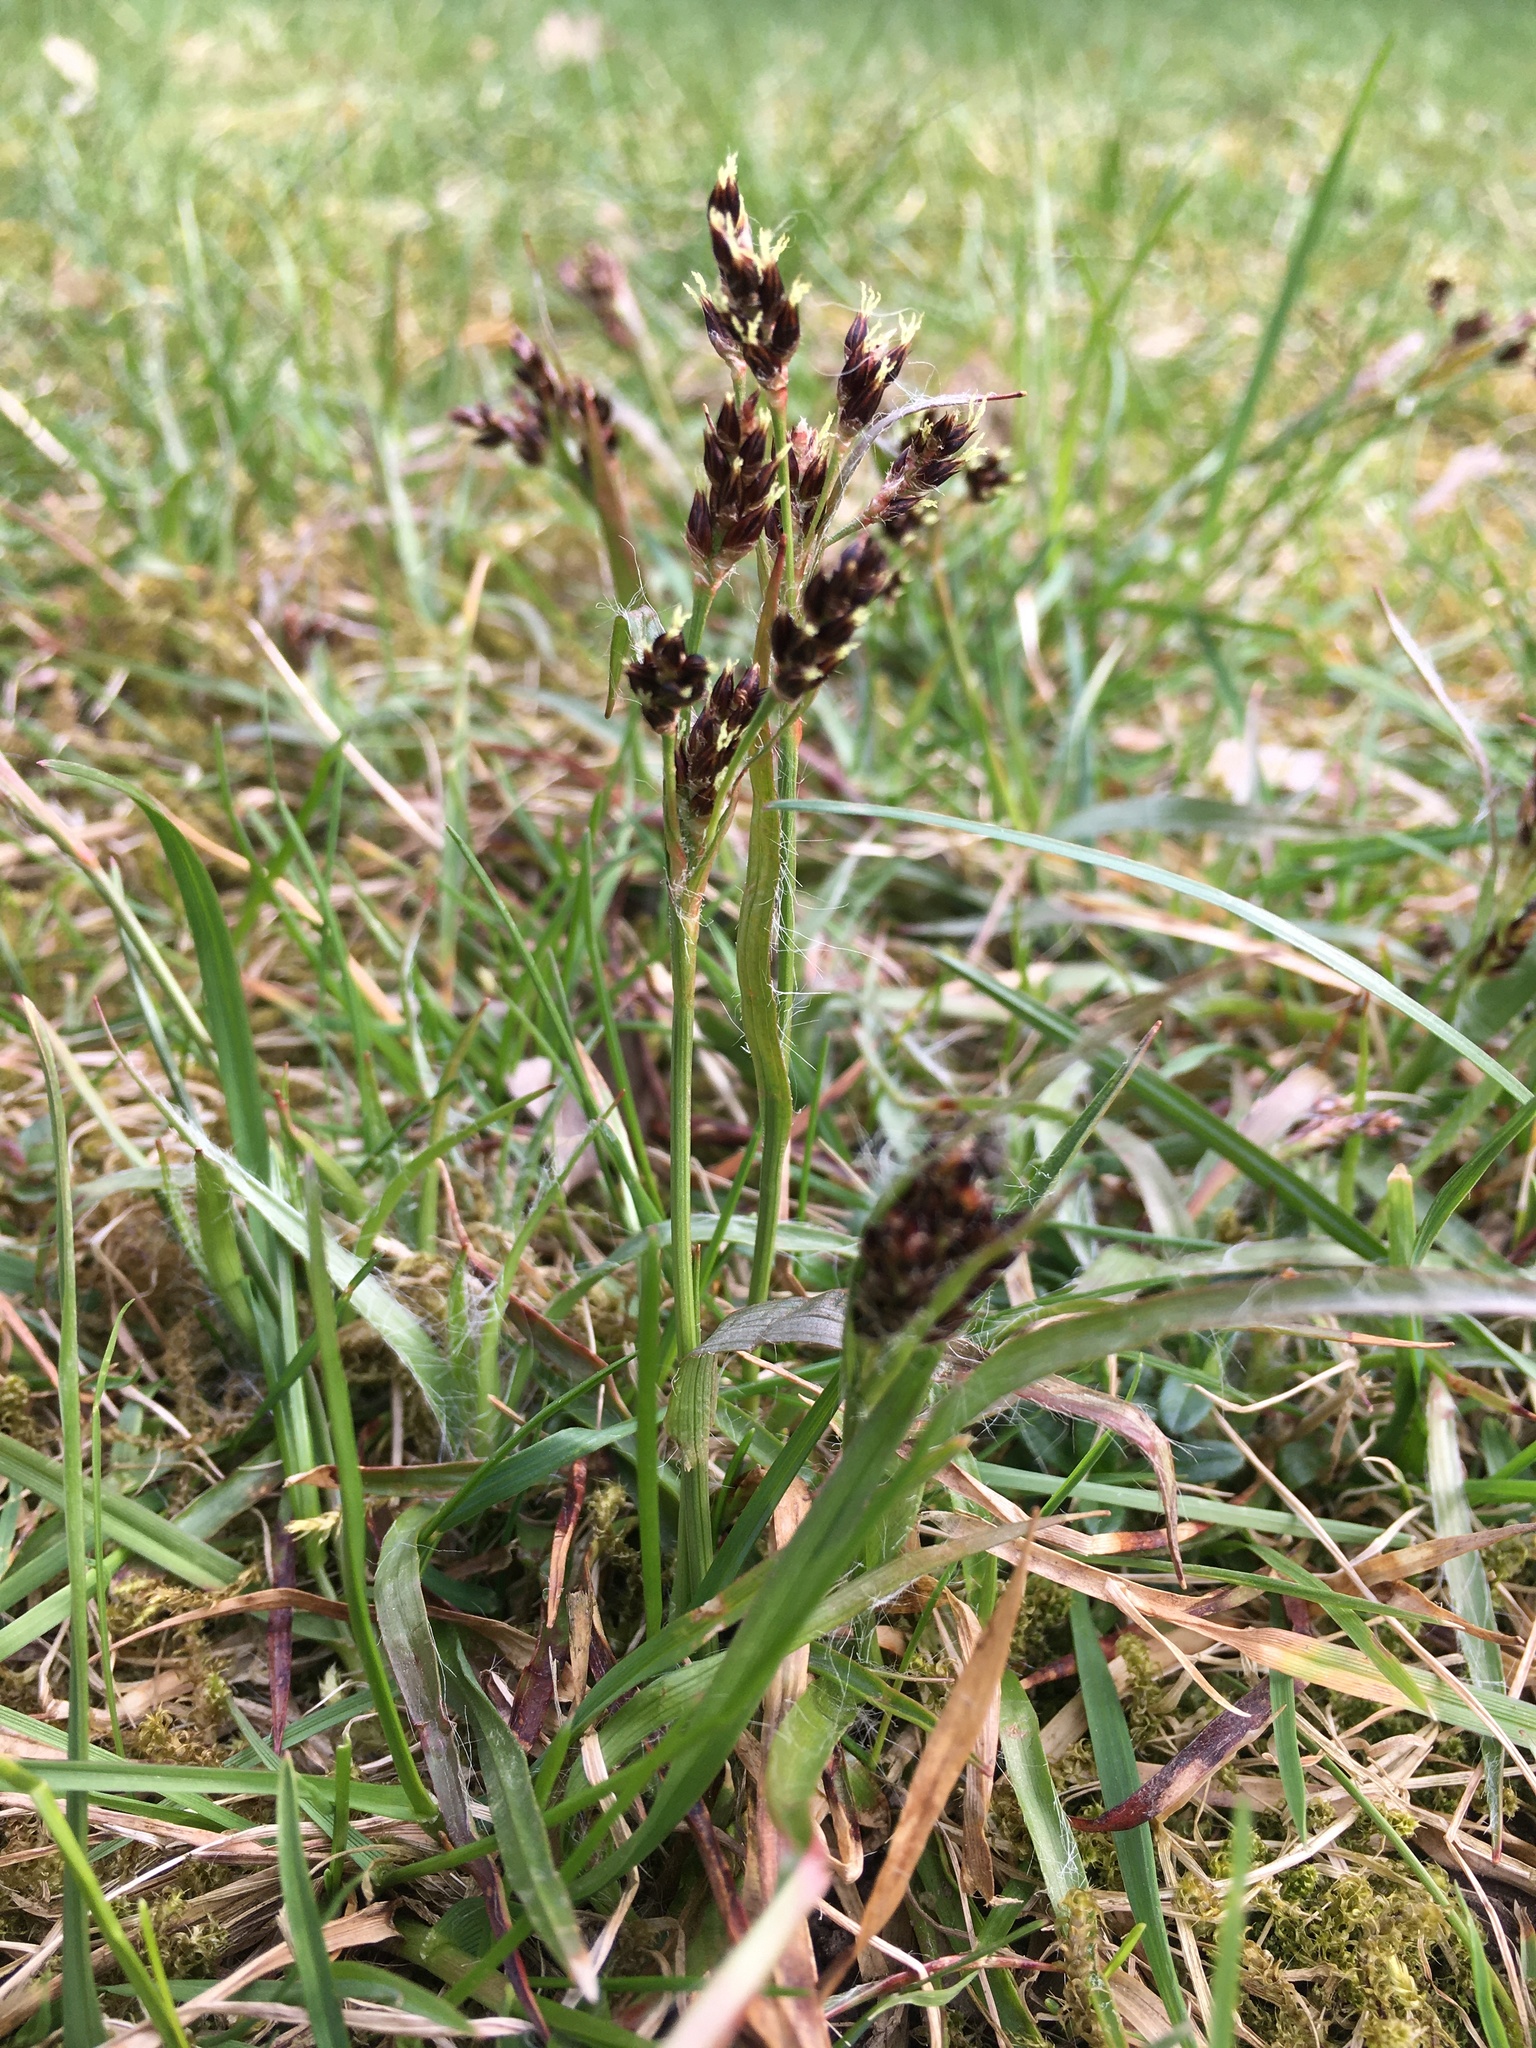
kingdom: Plantae
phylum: Tracheophyta
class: Liliopsida
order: Poales
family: Juncaceae
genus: Luzula
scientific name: Luzula campestris
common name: Field wood-rush
